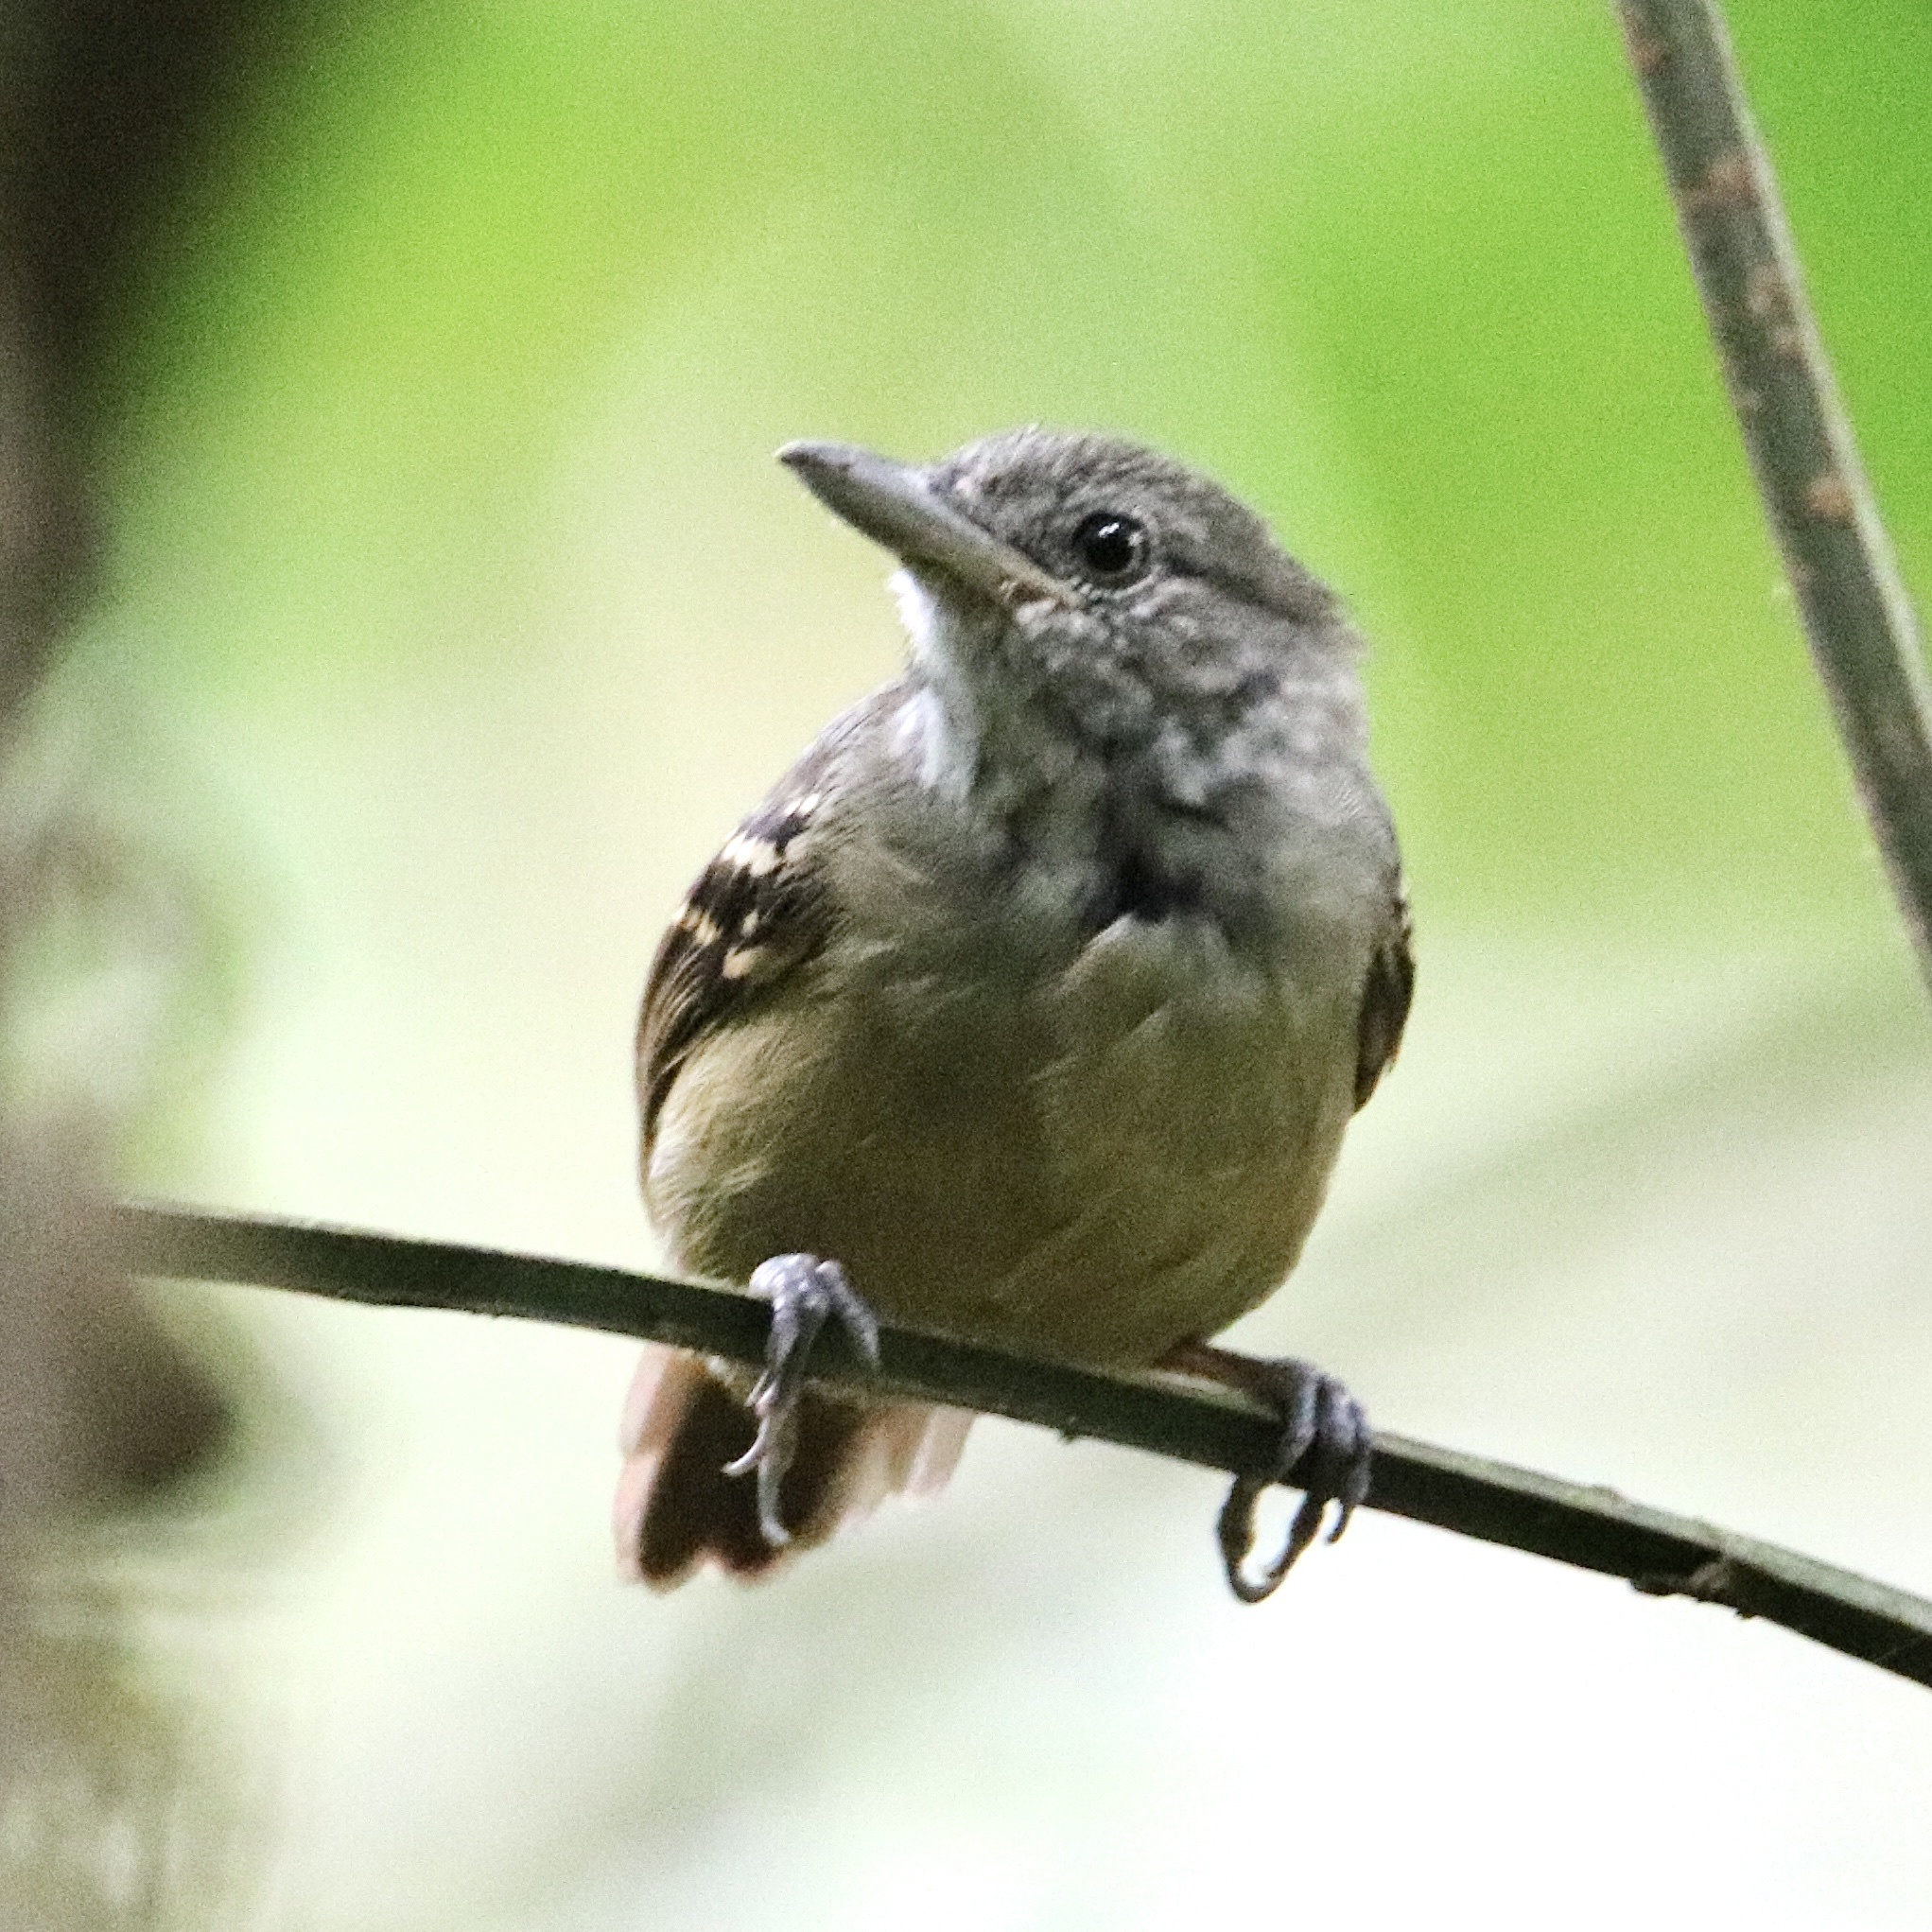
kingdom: Animalia
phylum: Chordata
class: Aves
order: Passeriformes
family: Thamnophilidae
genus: Epinecrophylla
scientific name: Epinecrophylla fulviventris
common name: Checker-throated antwren
